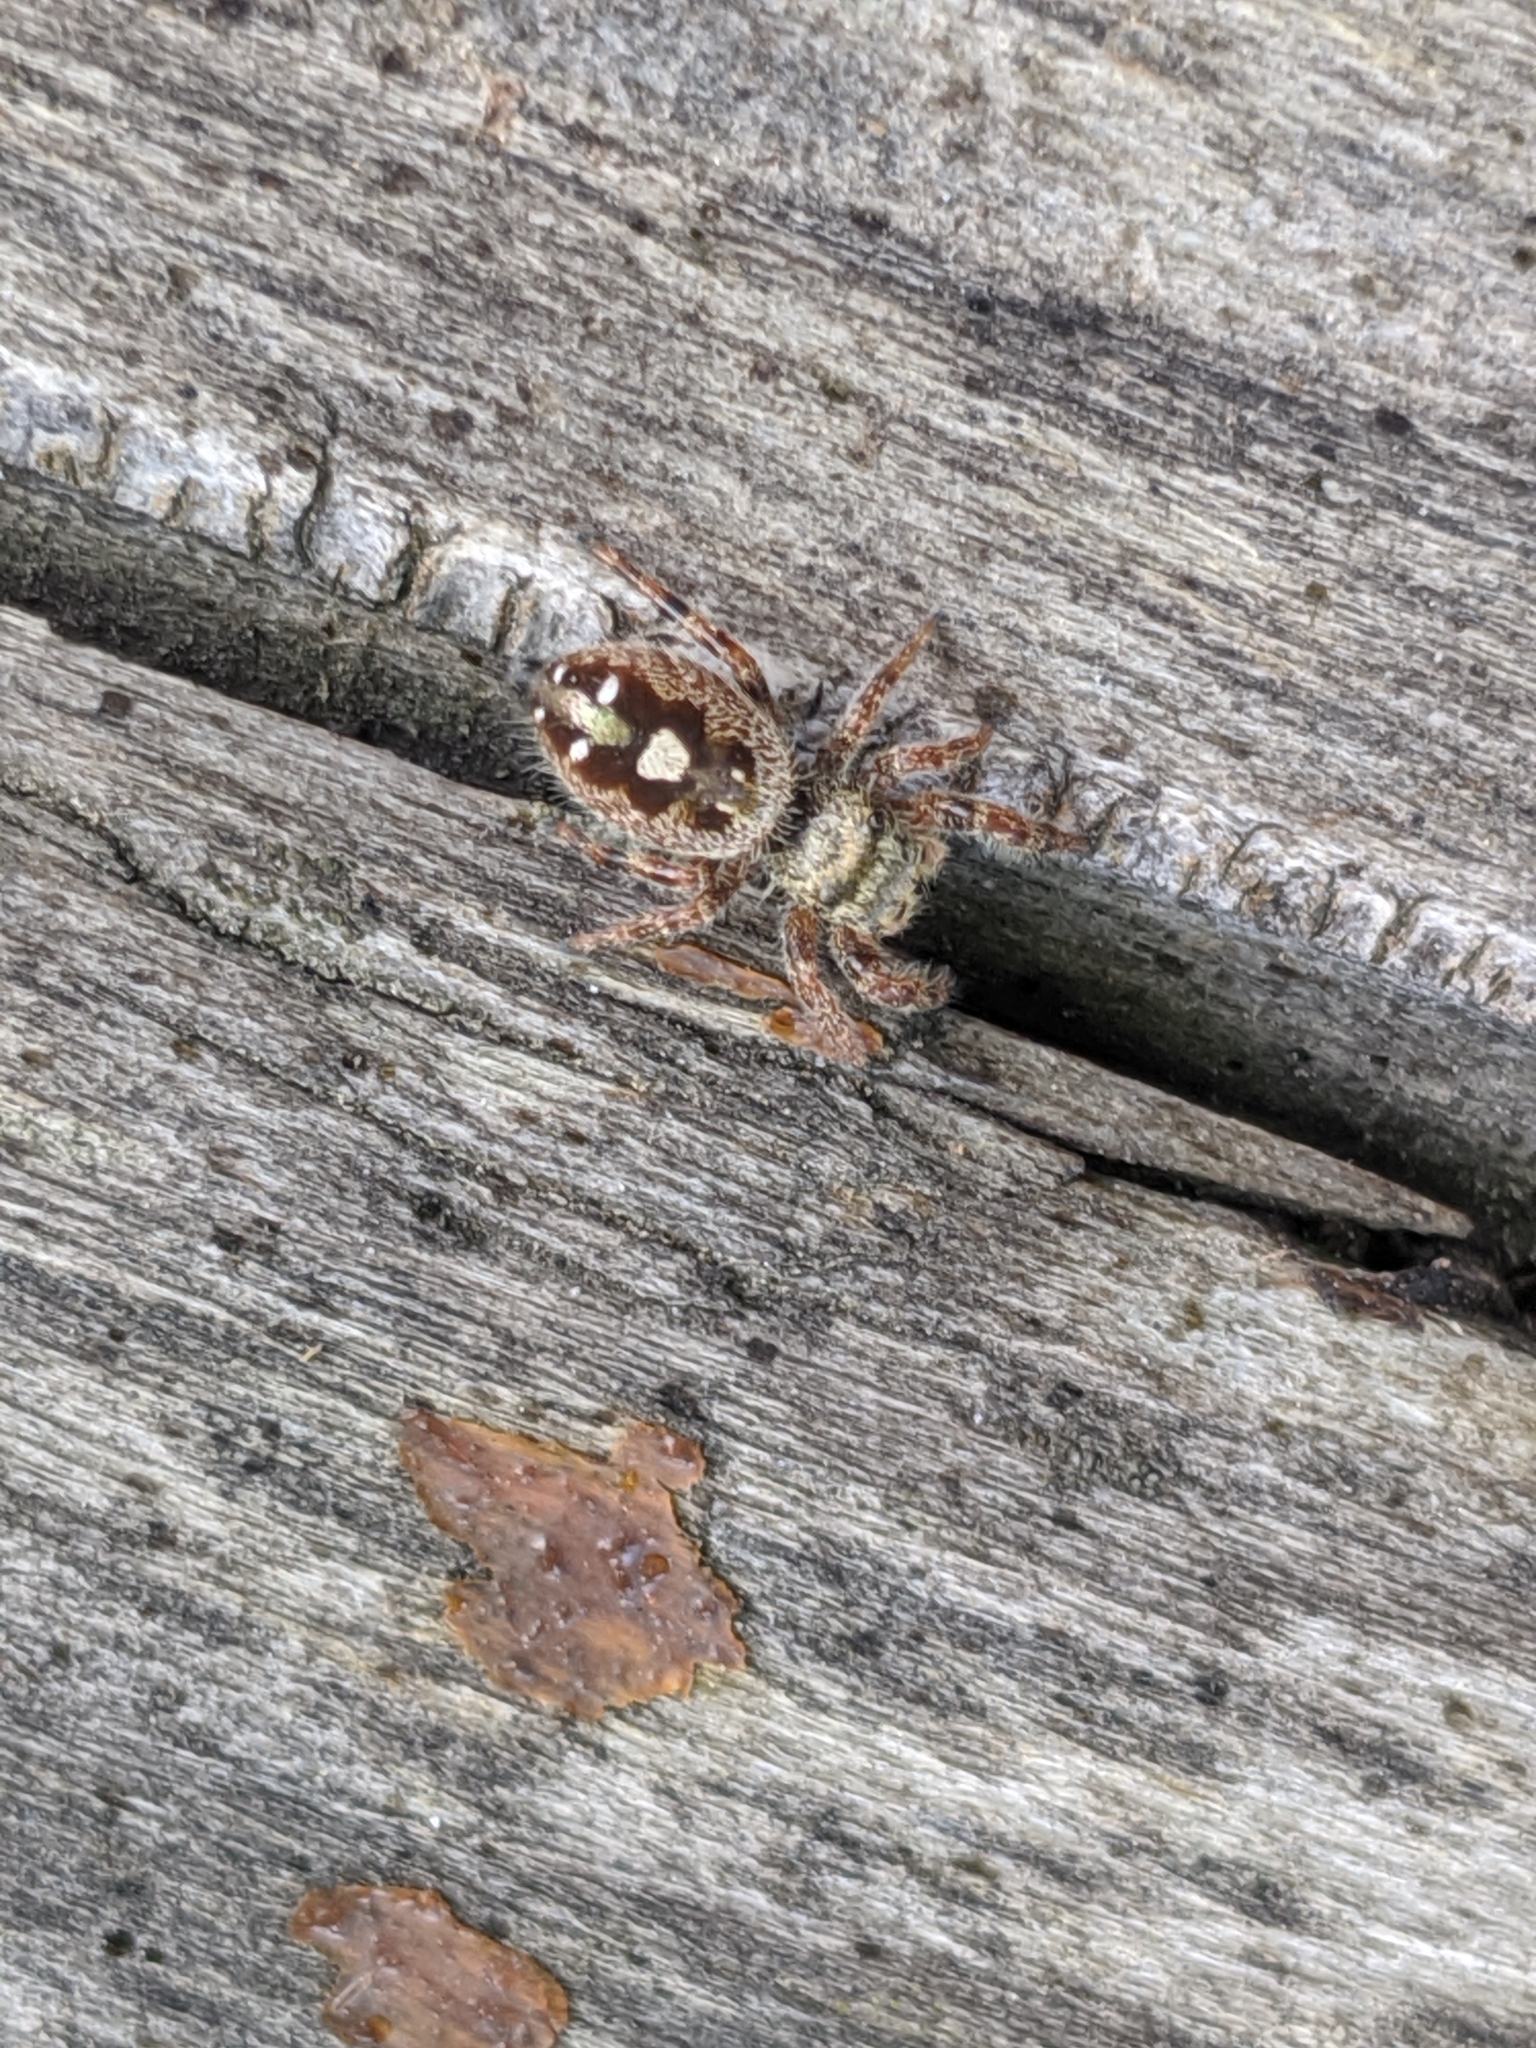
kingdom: Animalia
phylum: Arthropoda
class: Arachnida
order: Araneae
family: Salticidae
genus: Phidippus
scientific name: Phidippus audax
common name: Bold jumper
